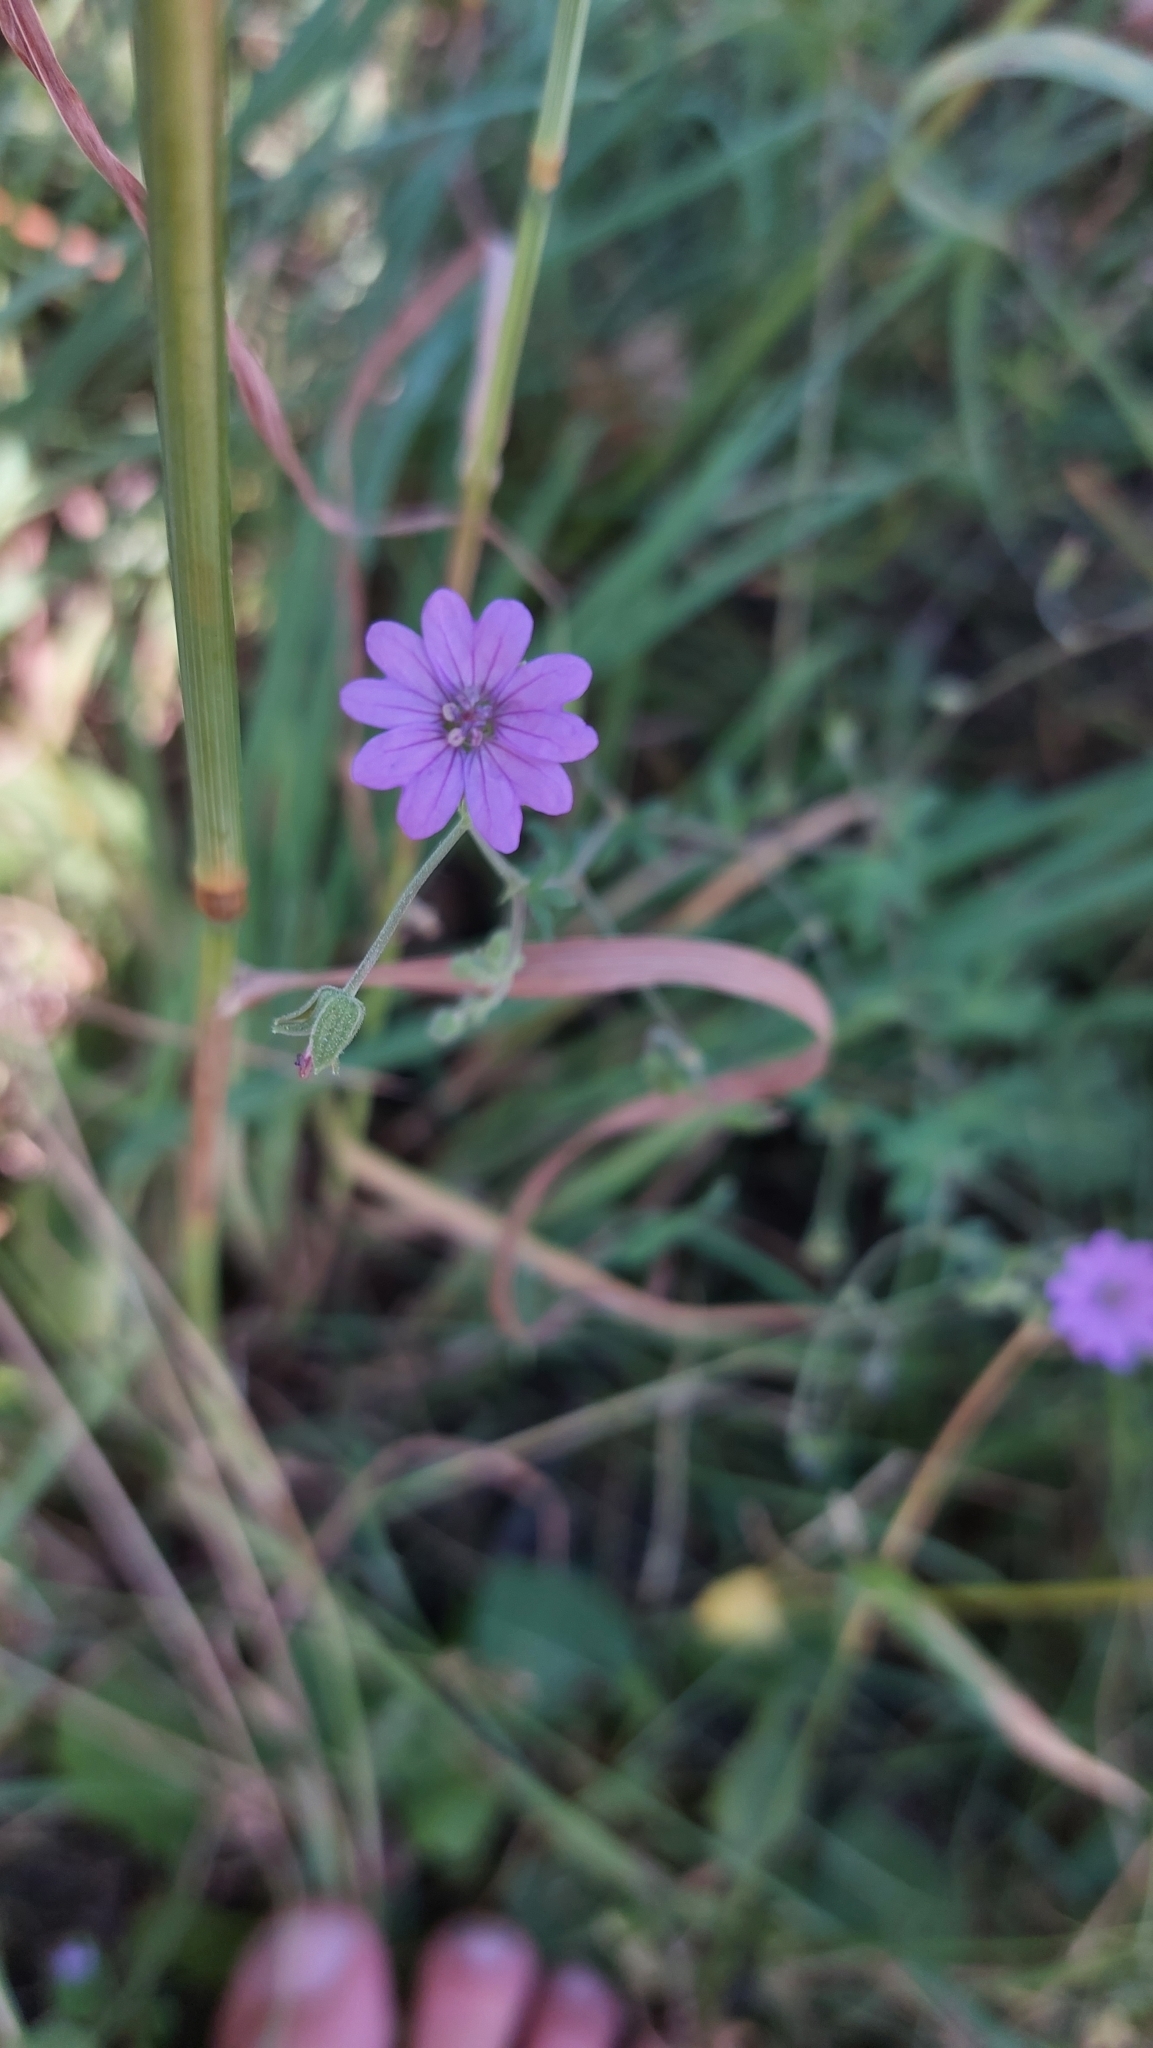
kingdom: Plantae
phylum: Tracheophyta
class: Magnoliopsida
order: Geraniales
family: Geraniaceae
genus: Geranium
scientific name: Geranium pyrenaicum
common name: Hedgerow crane's-bill
